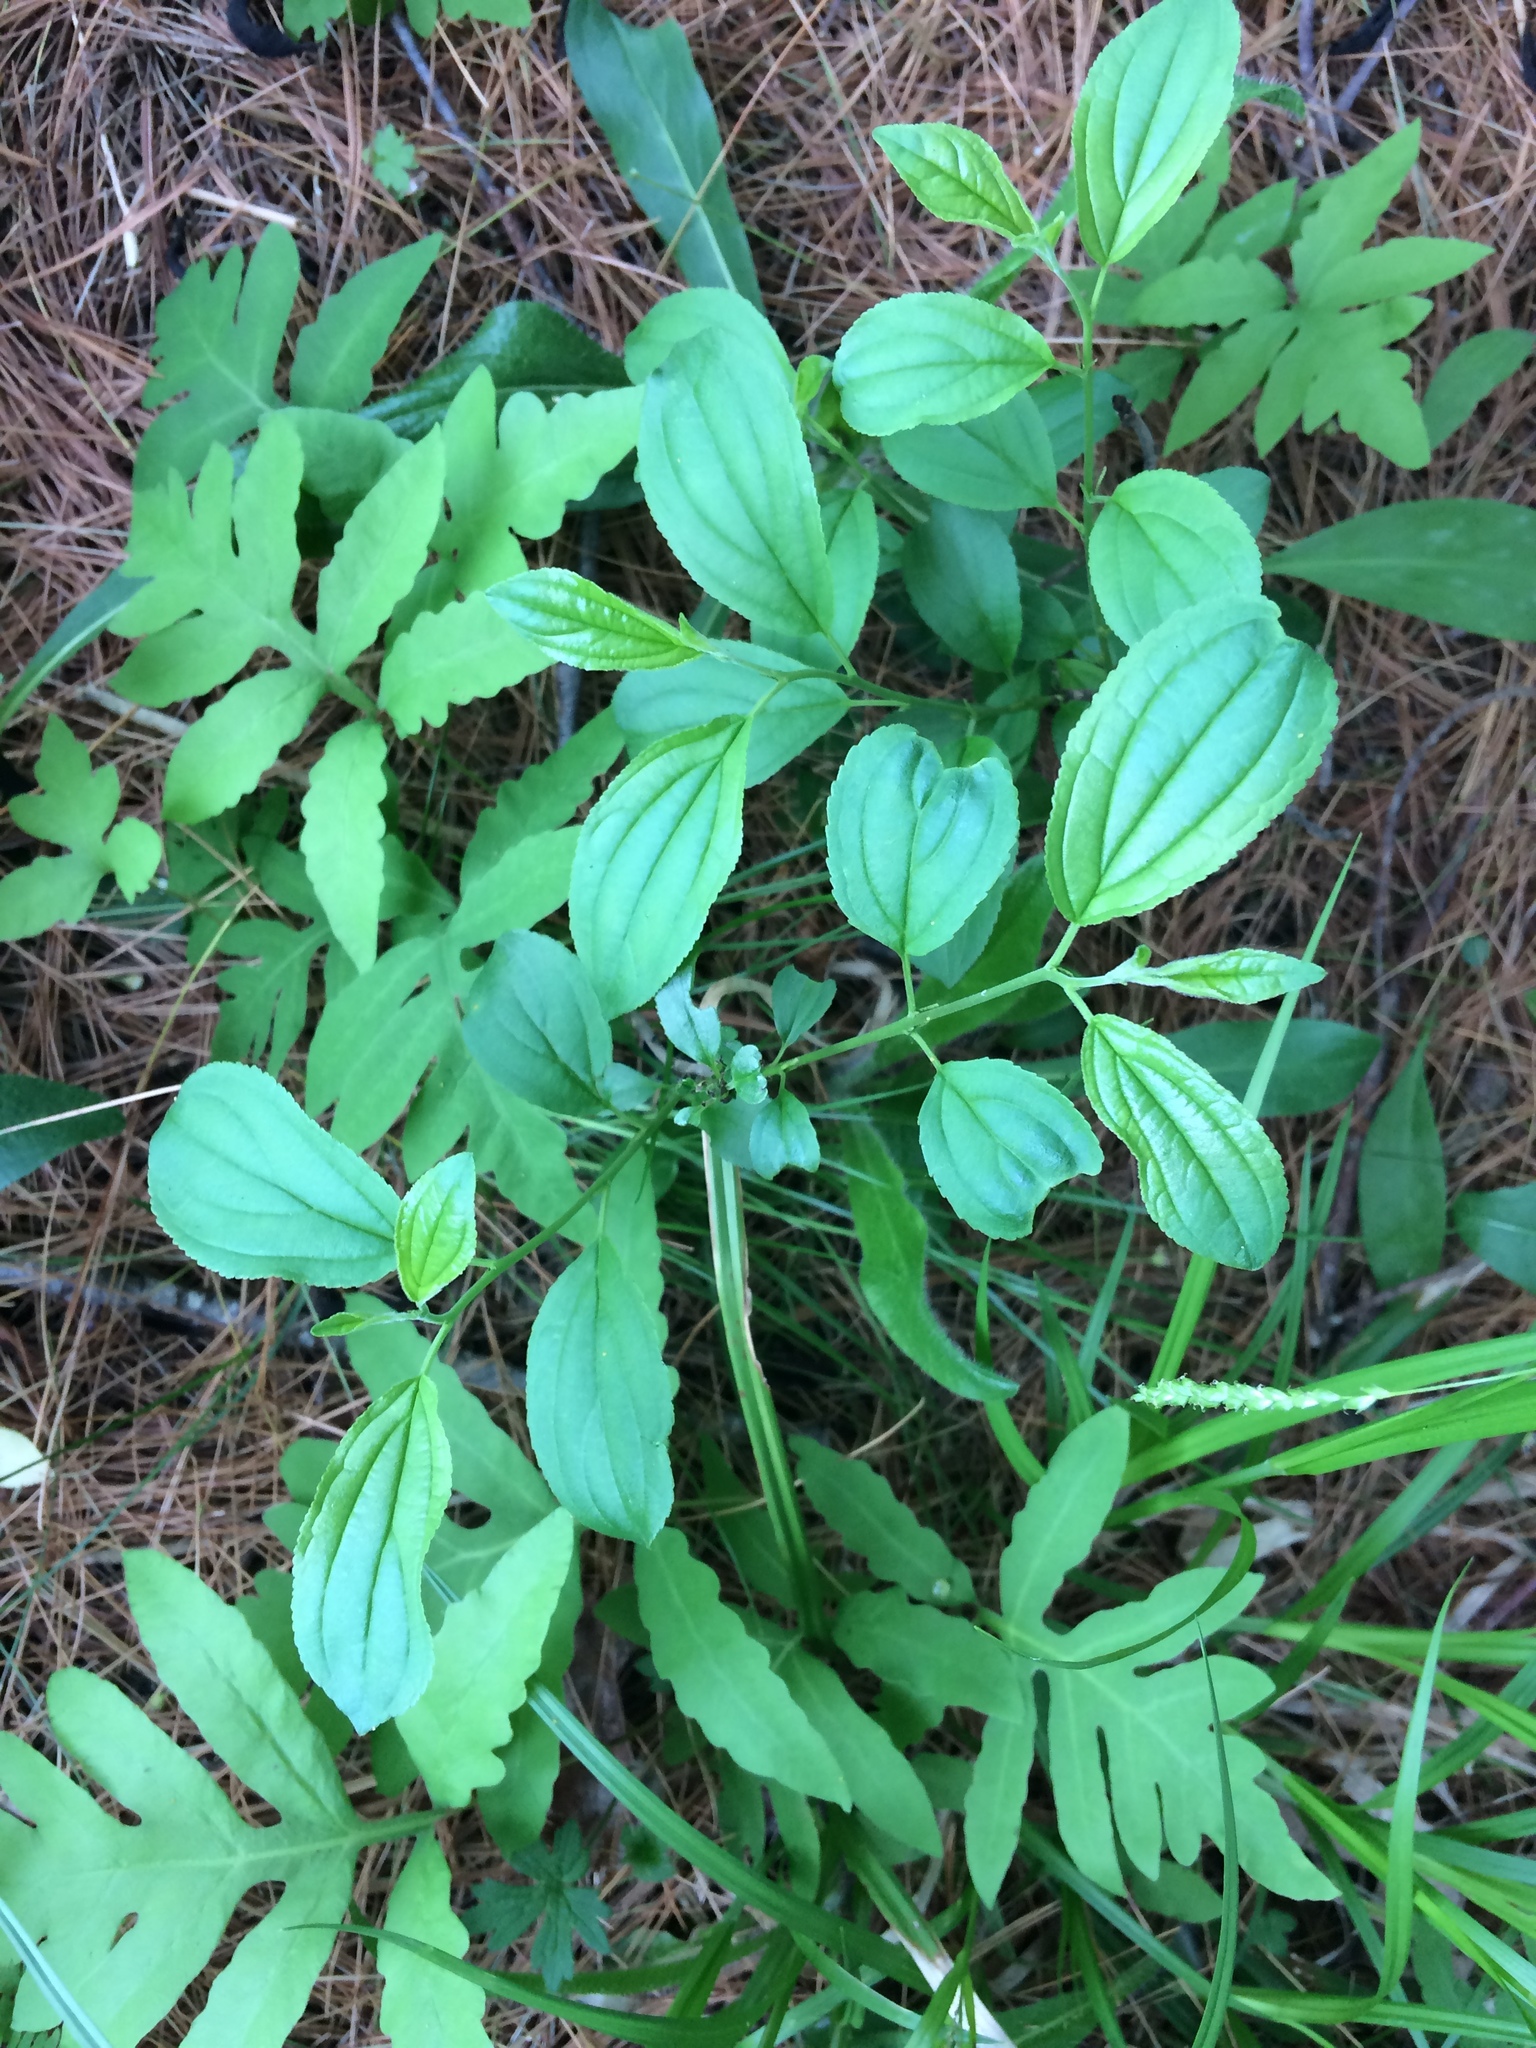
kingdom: Plantae
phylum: Tracheophyta
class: Magnoliopsida
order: Rosales
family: Rhamnaceae
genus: Rhamnus
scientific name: Rhamnus cathartica
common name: Common buckthorn
